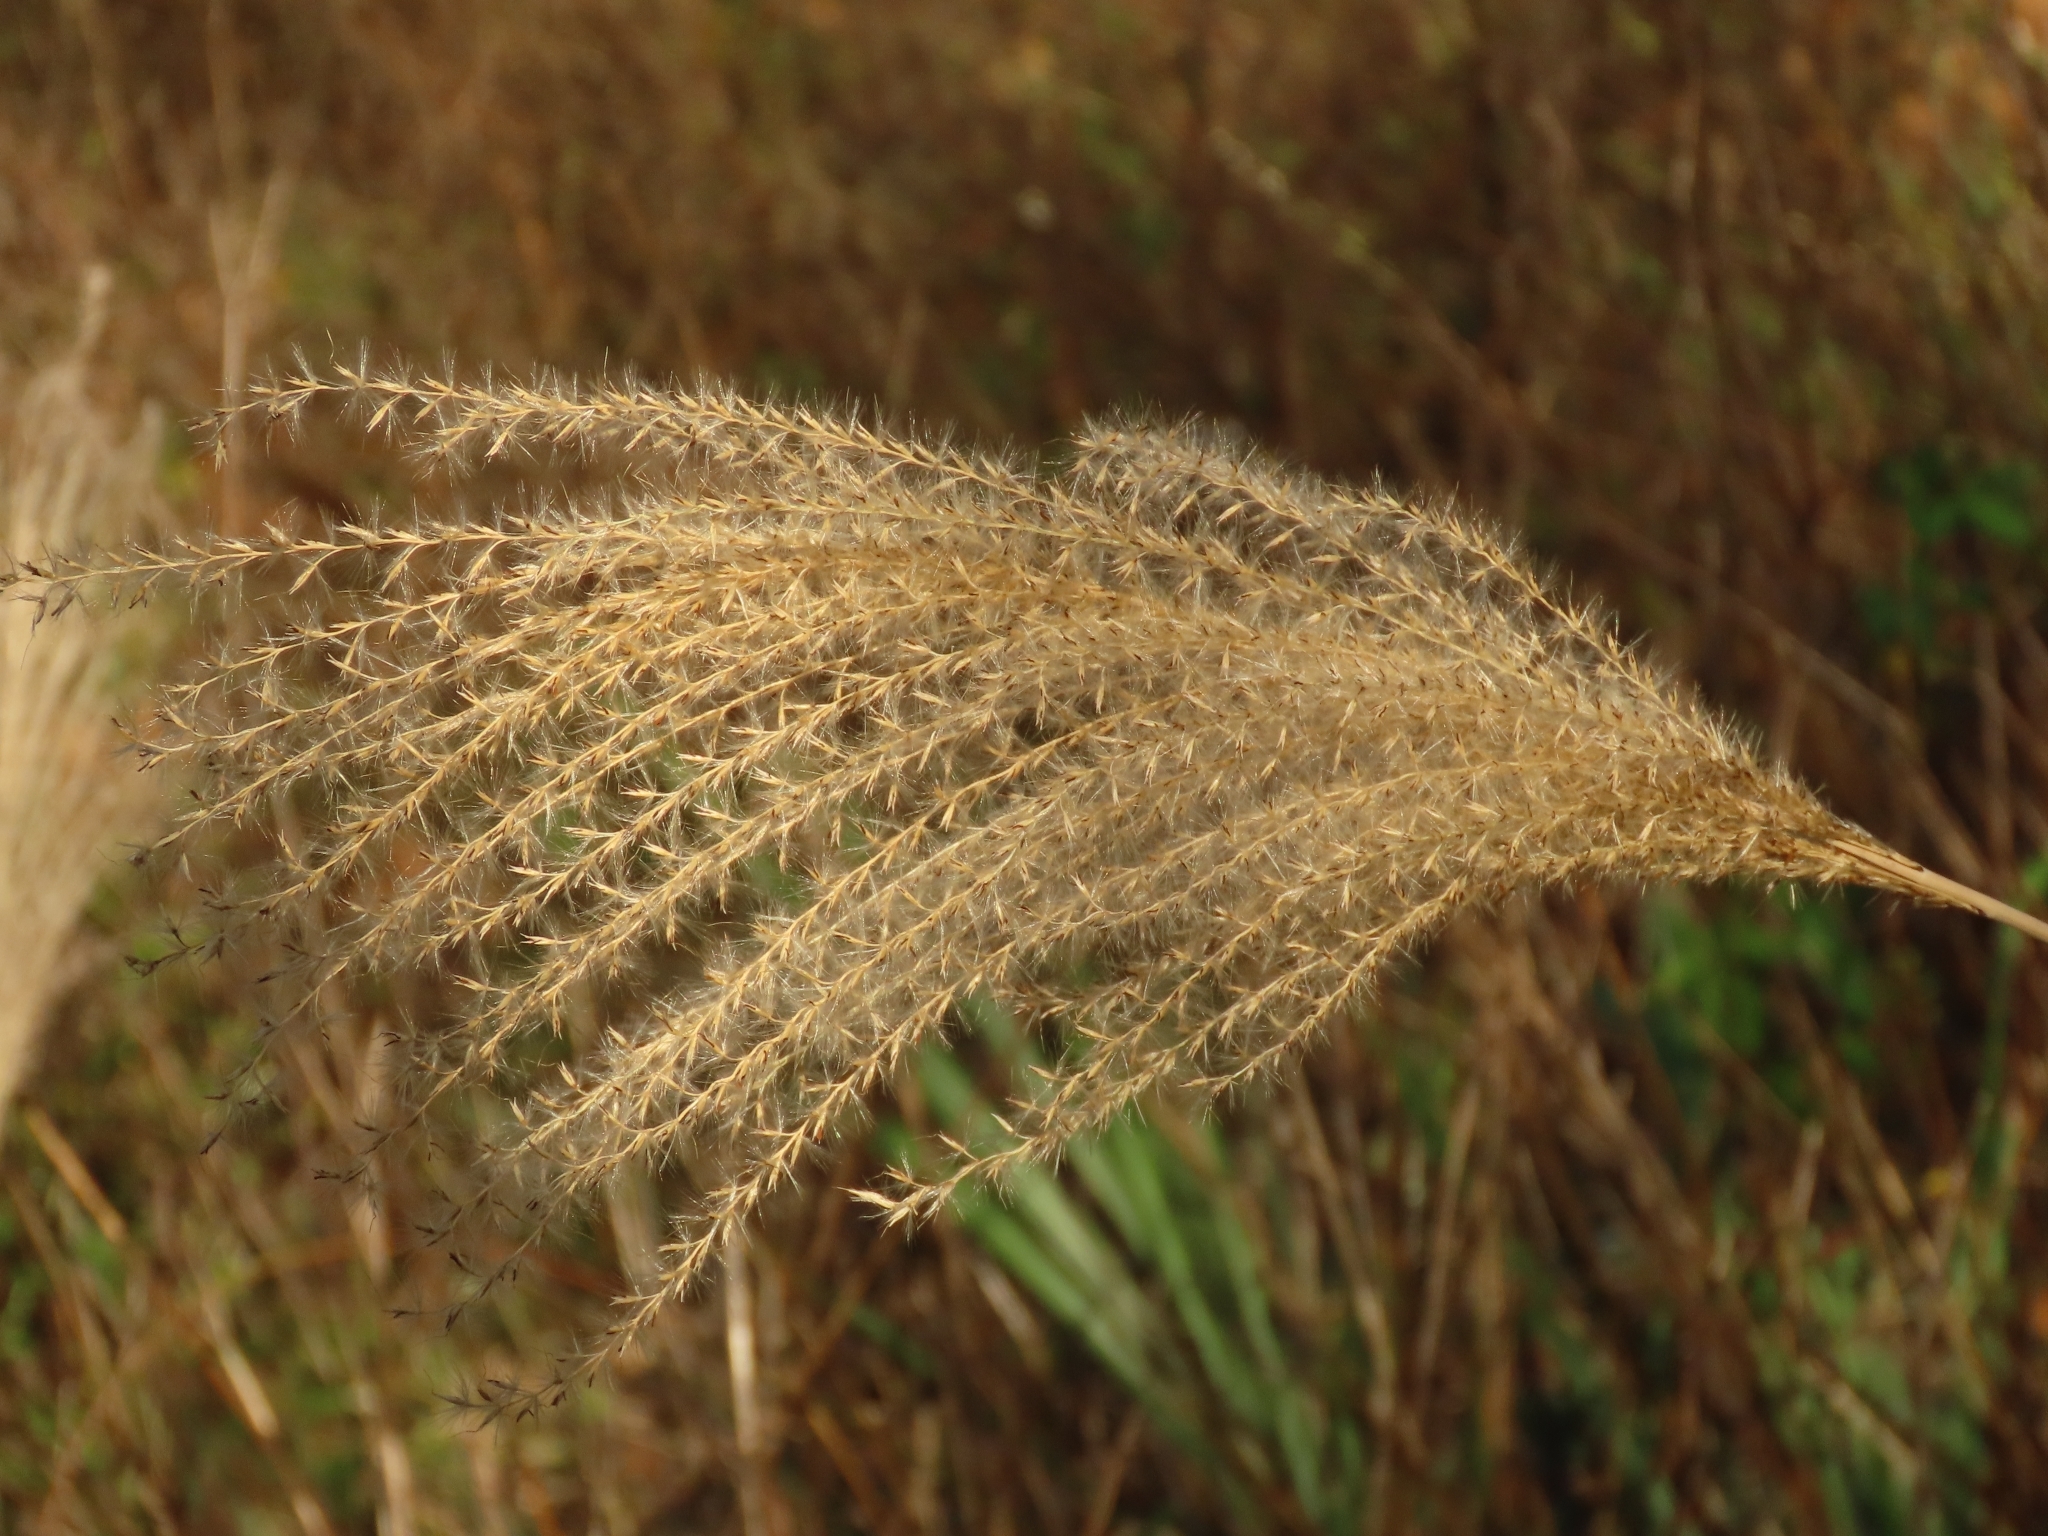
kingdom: Plantae
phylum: Tracheophyta
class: Liliopsida
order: Poales
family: Poaceae
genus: Miscanthus
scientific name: Miscanthus sinensis
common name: Chinese silvergrass
